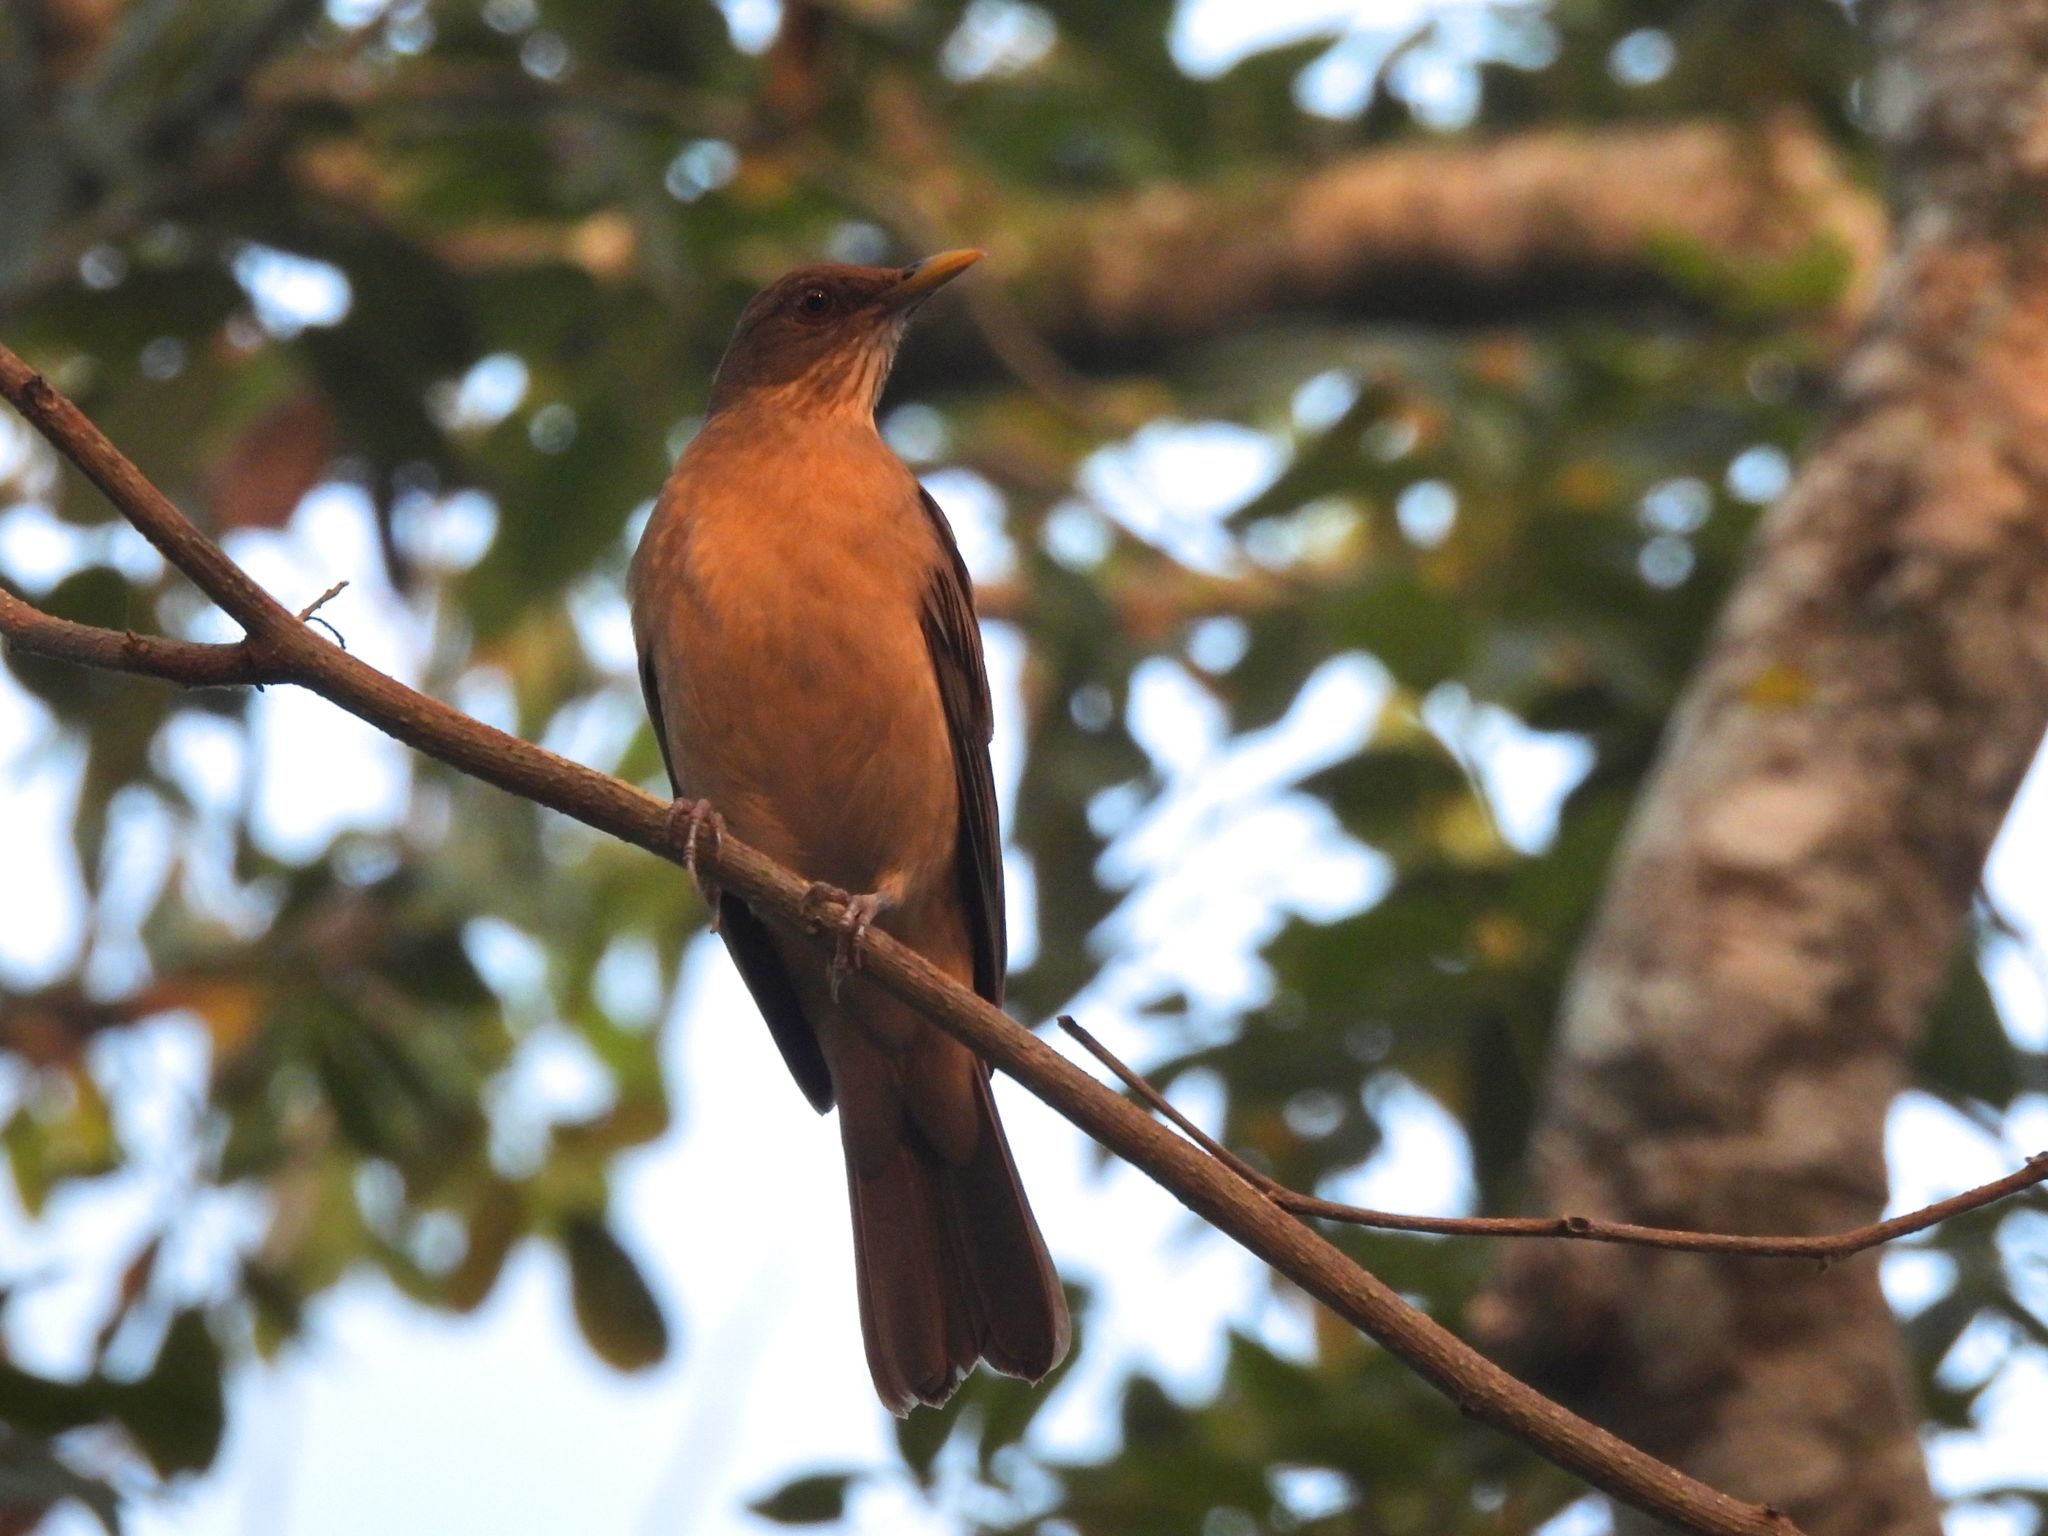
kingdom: Animalia
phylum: Chordata
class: Aves
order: Passeriformes
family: Turdidae
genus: Turdus
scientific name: Turdus grayi
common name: Clay-colored thrush
